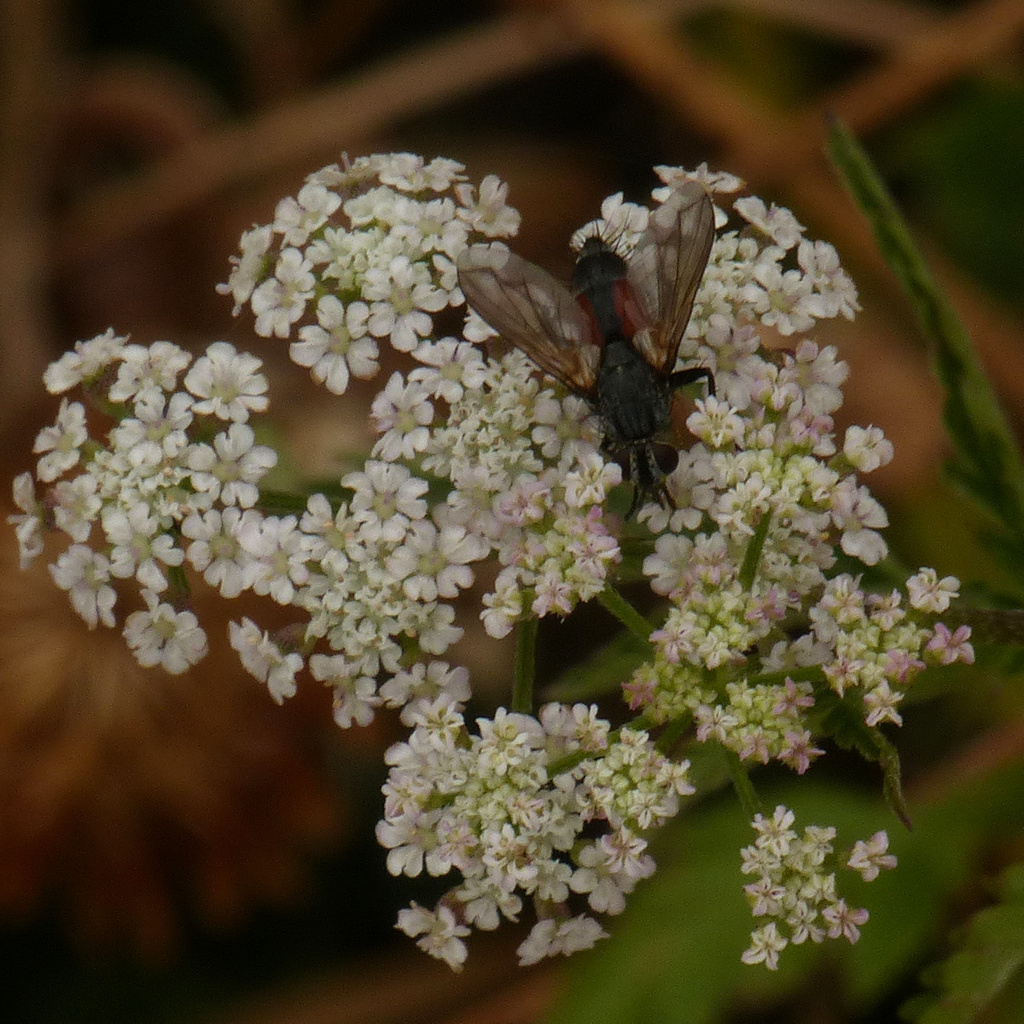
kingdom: Animalia
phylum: Arthropoda
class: Insecta
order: Diptera
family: Tachinidae
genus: Eriothrix
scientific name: Eriothrix rufomaculatus
